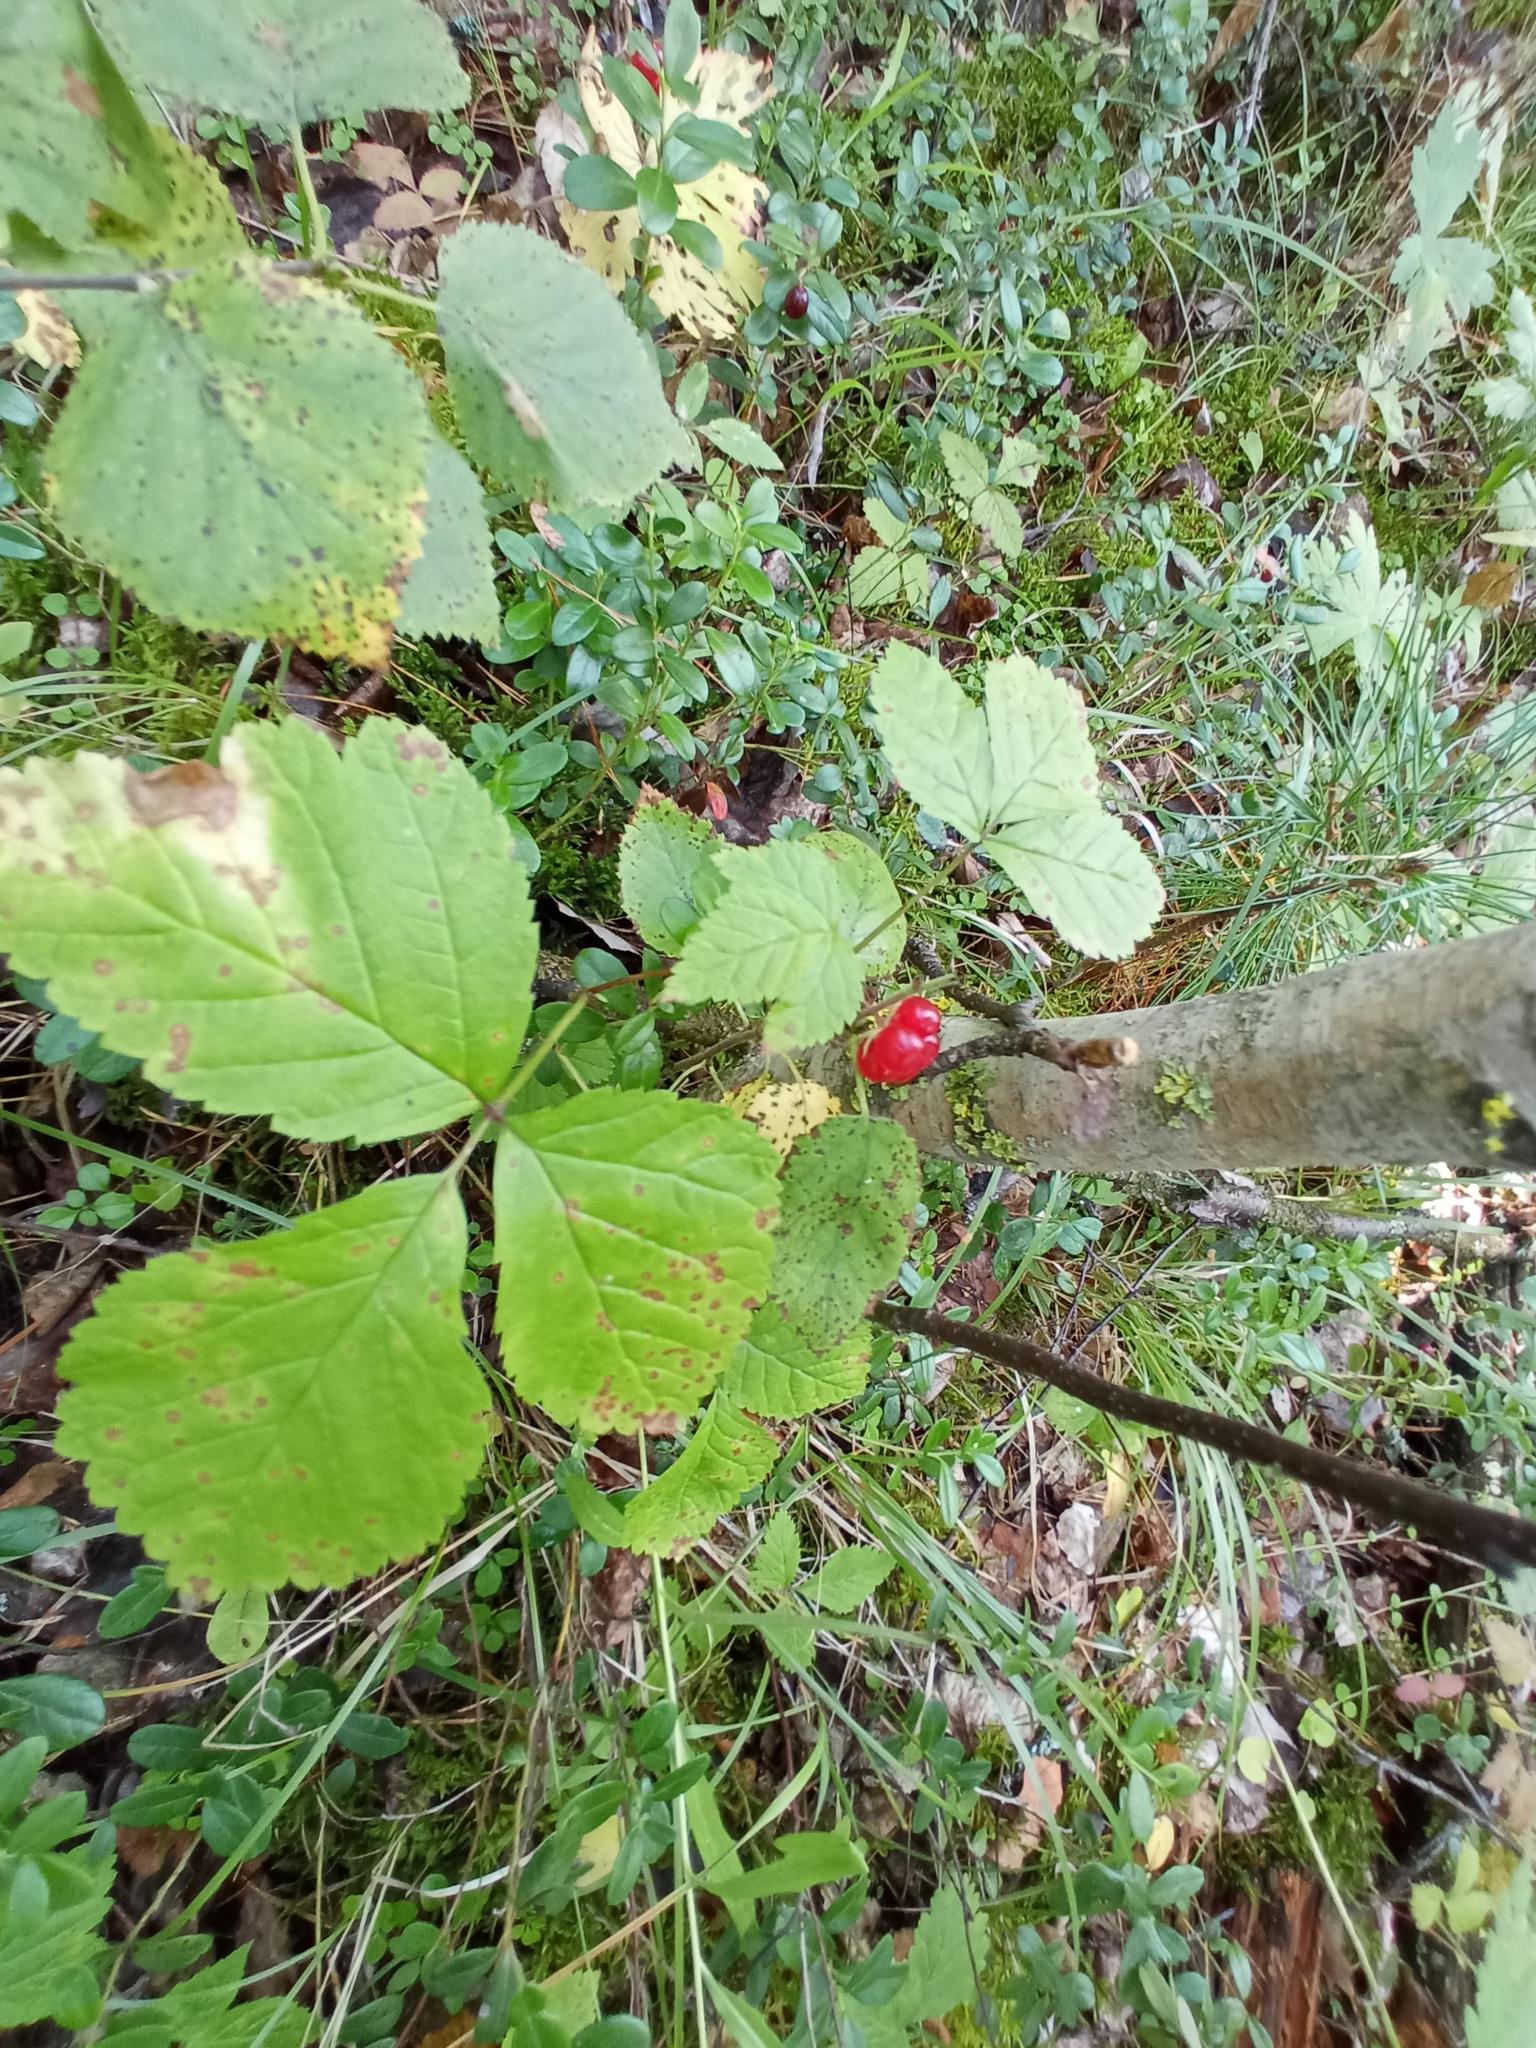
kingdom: Plantae
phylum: Tracheophyta
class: Magnoliopsida
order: Rosales
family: Rosaceae
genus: Rubus
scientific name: Rubus saxatilis
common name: Stone bramble
